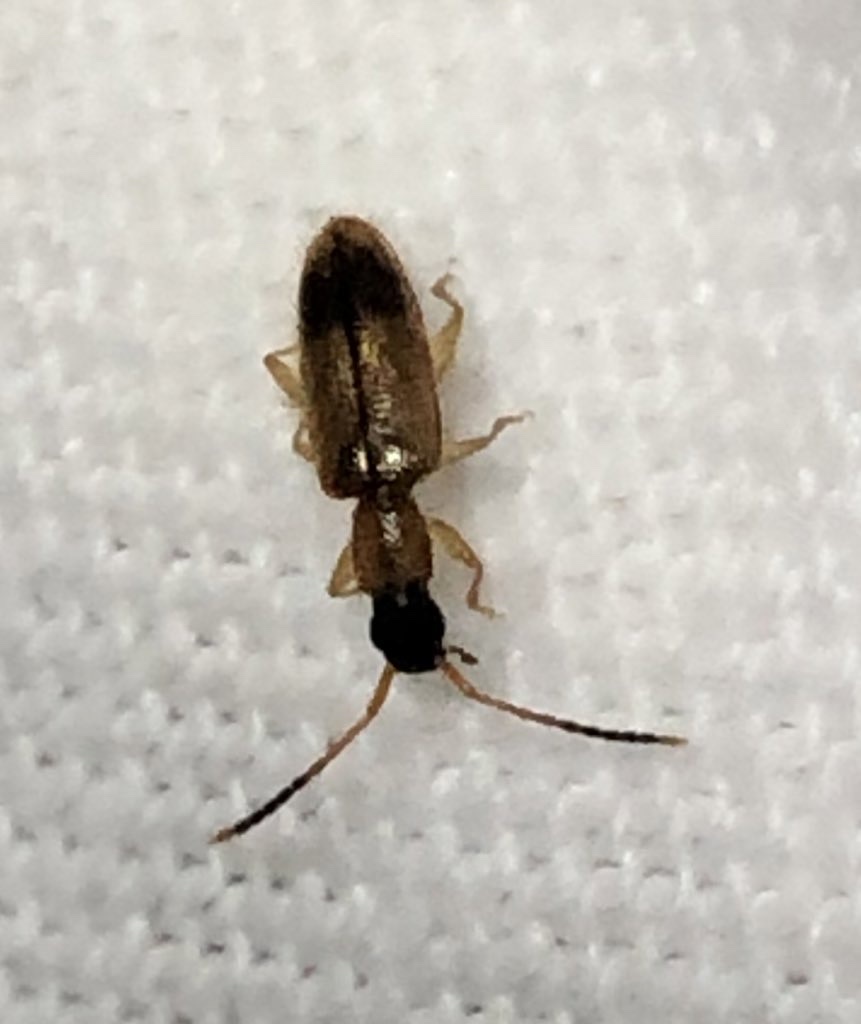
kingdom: Animalia
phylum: Arthropoda
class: Insecta
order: Coleoptera
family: Silvanidae
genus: Telephanus
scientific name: Telephanus velox
